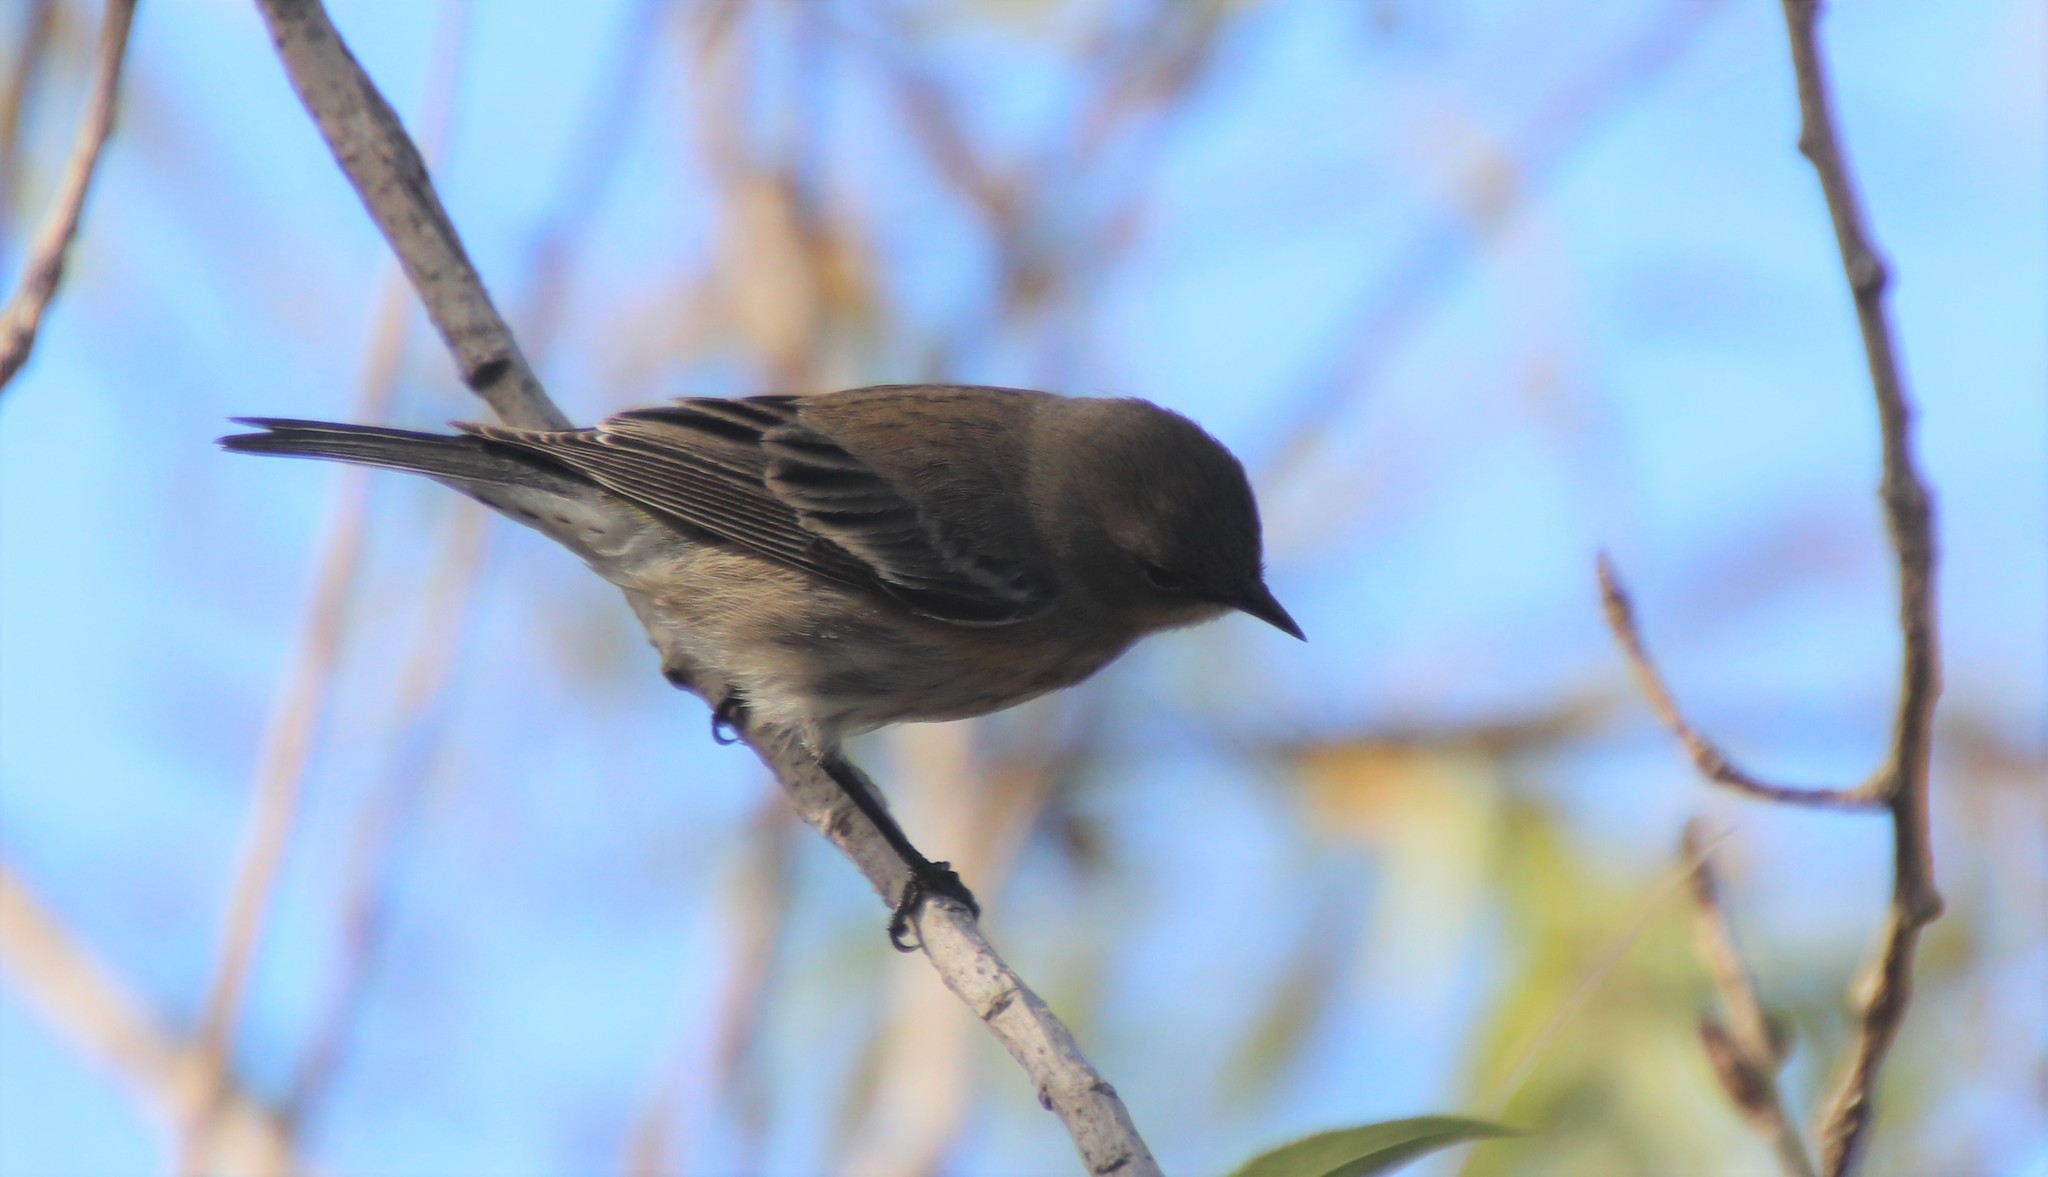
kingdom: Animalia
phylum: Chordata
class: Aves
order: Passeriformes
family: Parulidae
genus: Setophaga
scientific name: Setophaga coronata
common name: Myrtle warbler
